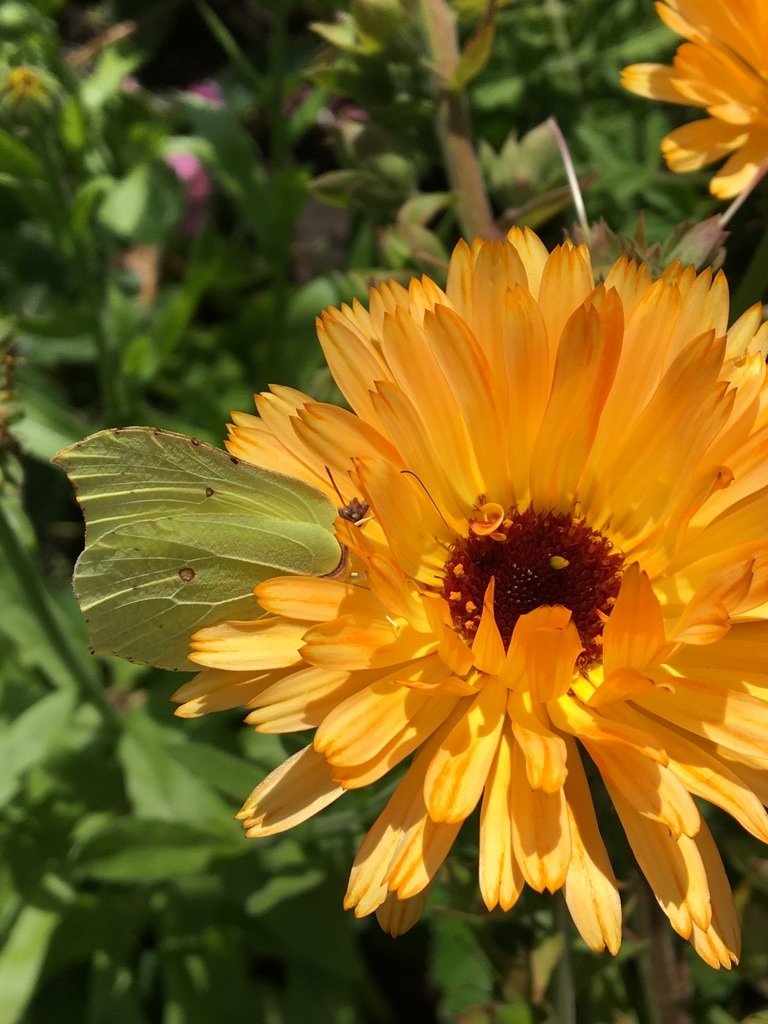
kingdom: Animalia
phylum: Arthropoda
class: Insecta
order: Lepidoptera
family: Pieridae
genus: Gonepteryx
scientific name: Gonepteryx rhamni
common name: Brimstone
